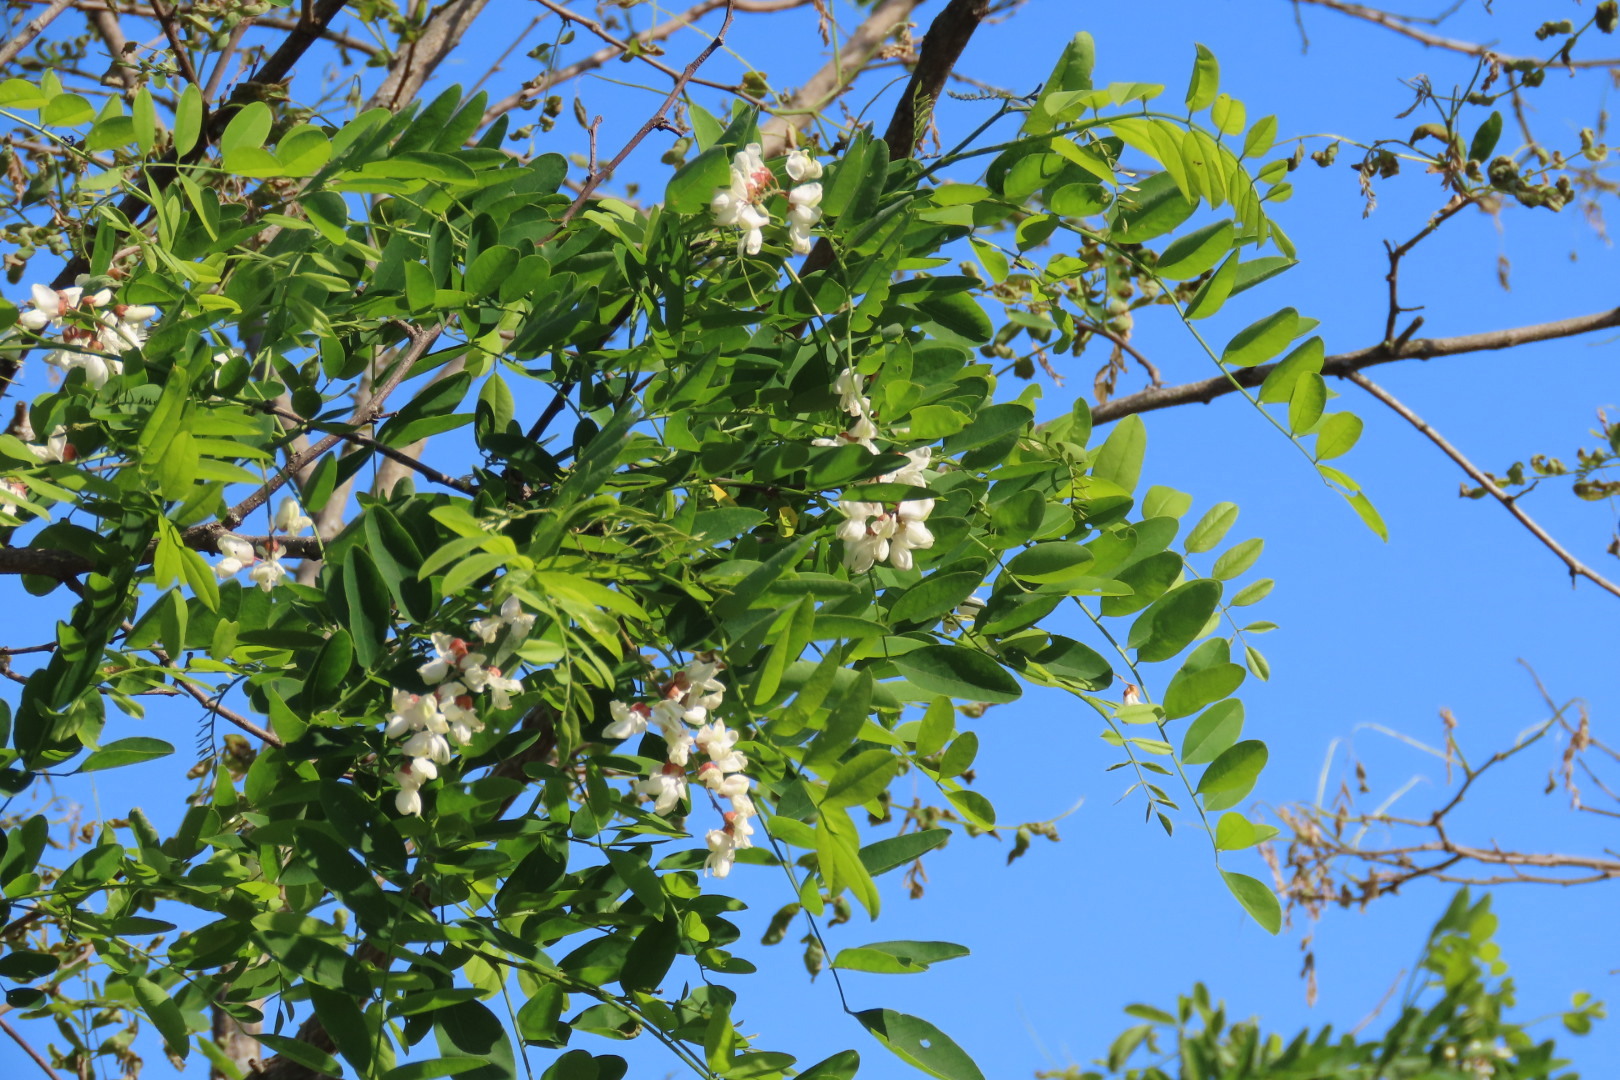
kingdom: Plantae
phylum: Tracheophyta
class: Magnoliopsida
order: Fabales
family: Fabaceae
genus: Robinia
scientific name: Robinia pseudoacacia
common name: Black locust
